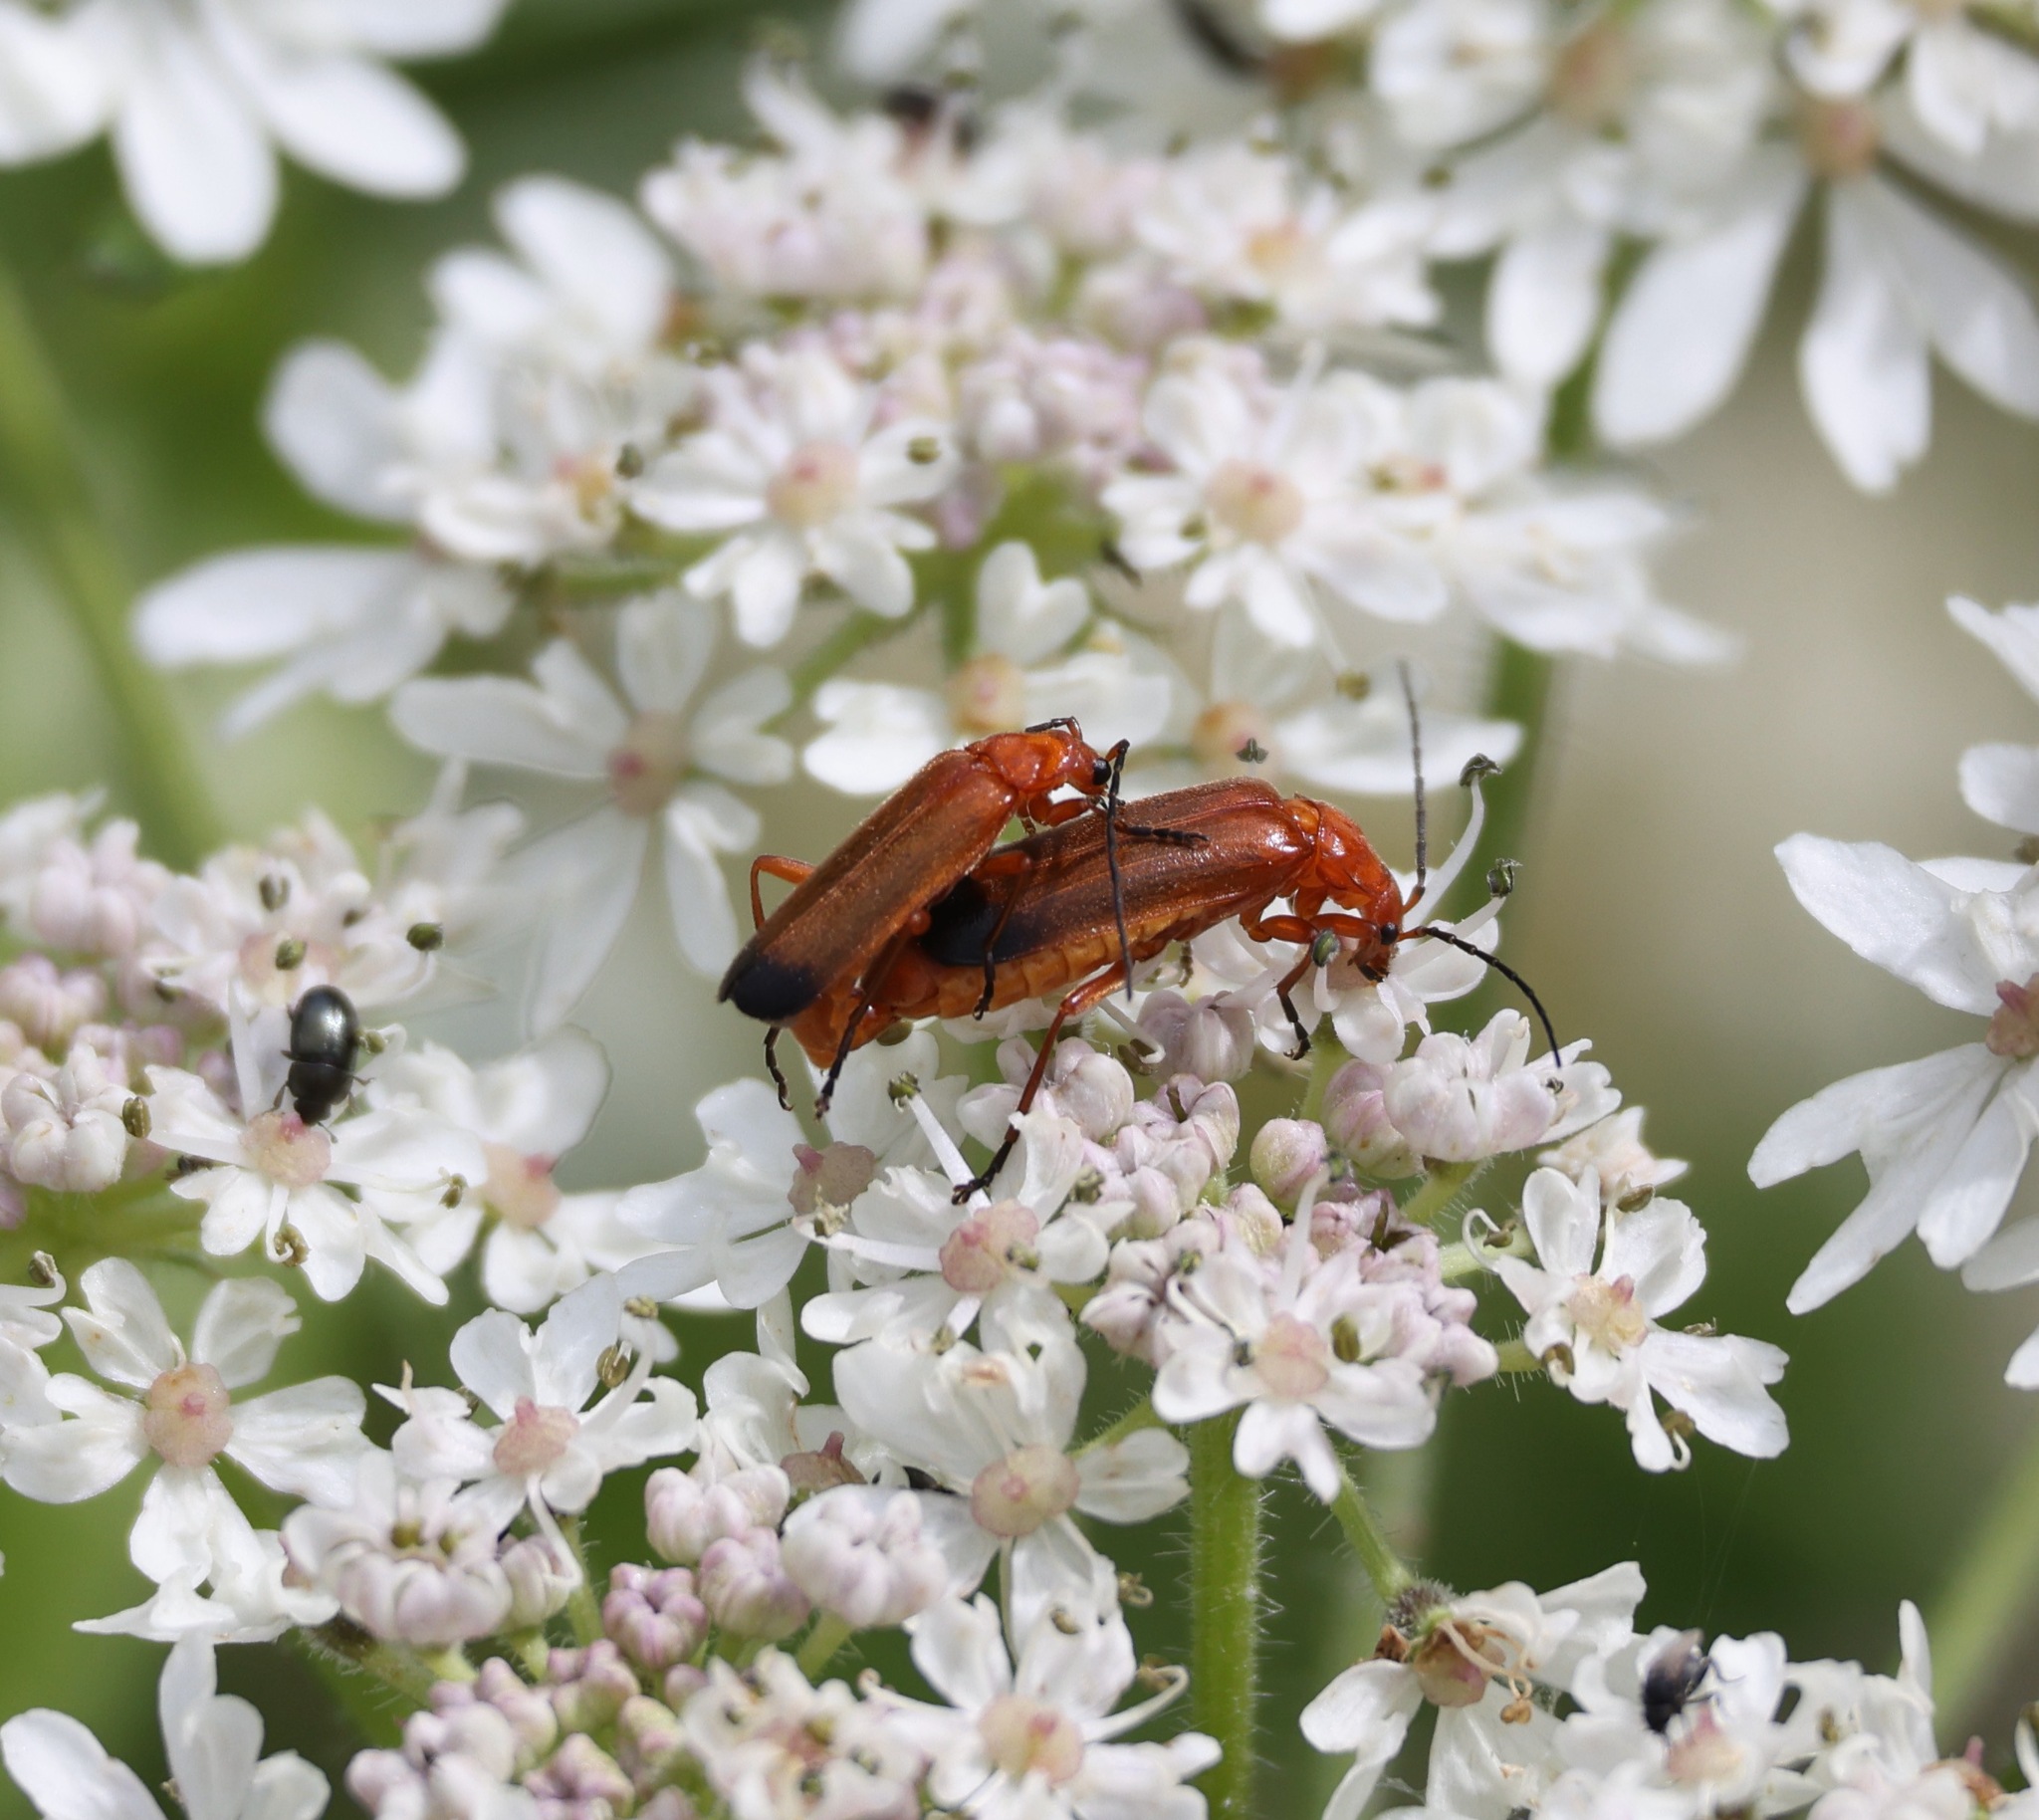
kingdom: Animalia
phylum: Arthropoda
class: Insecta
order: Coleoptera
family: Cantharidae
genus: Rhagonycha
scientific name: Rhagonycha fulva
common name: Common red soldier beetle
